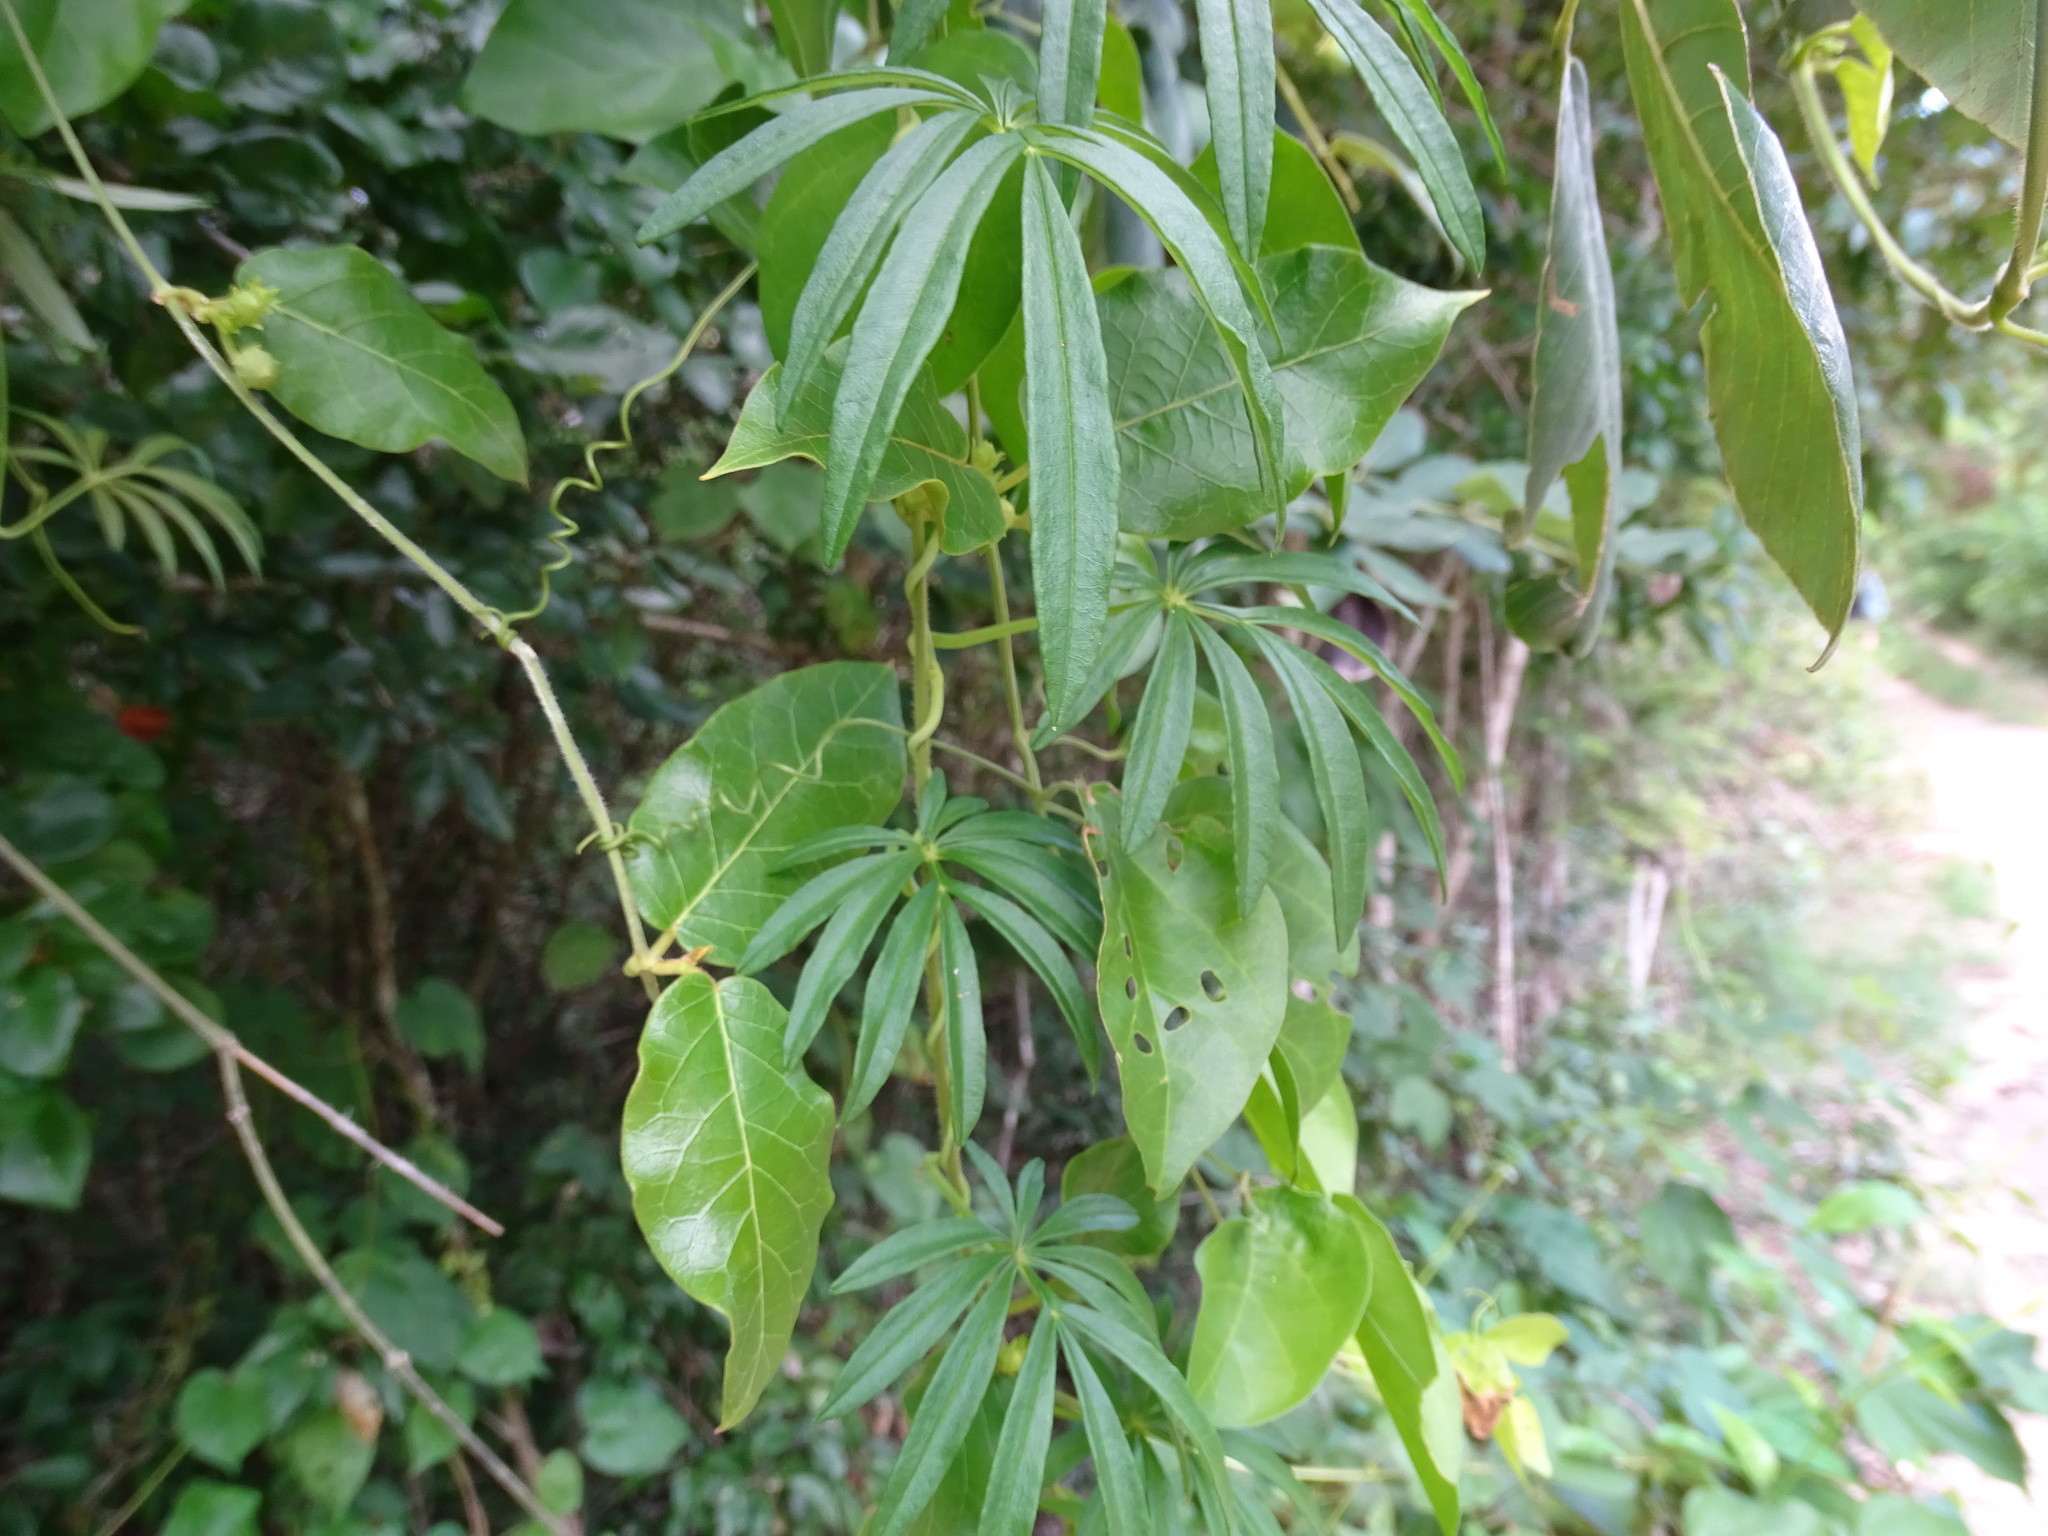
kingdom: Plantae
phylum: Tracheophyta
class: Magnoliopsida
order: Solanales
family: Convolvulaceae
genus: Ipomoea
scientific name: Ipomoea heterodoxa
